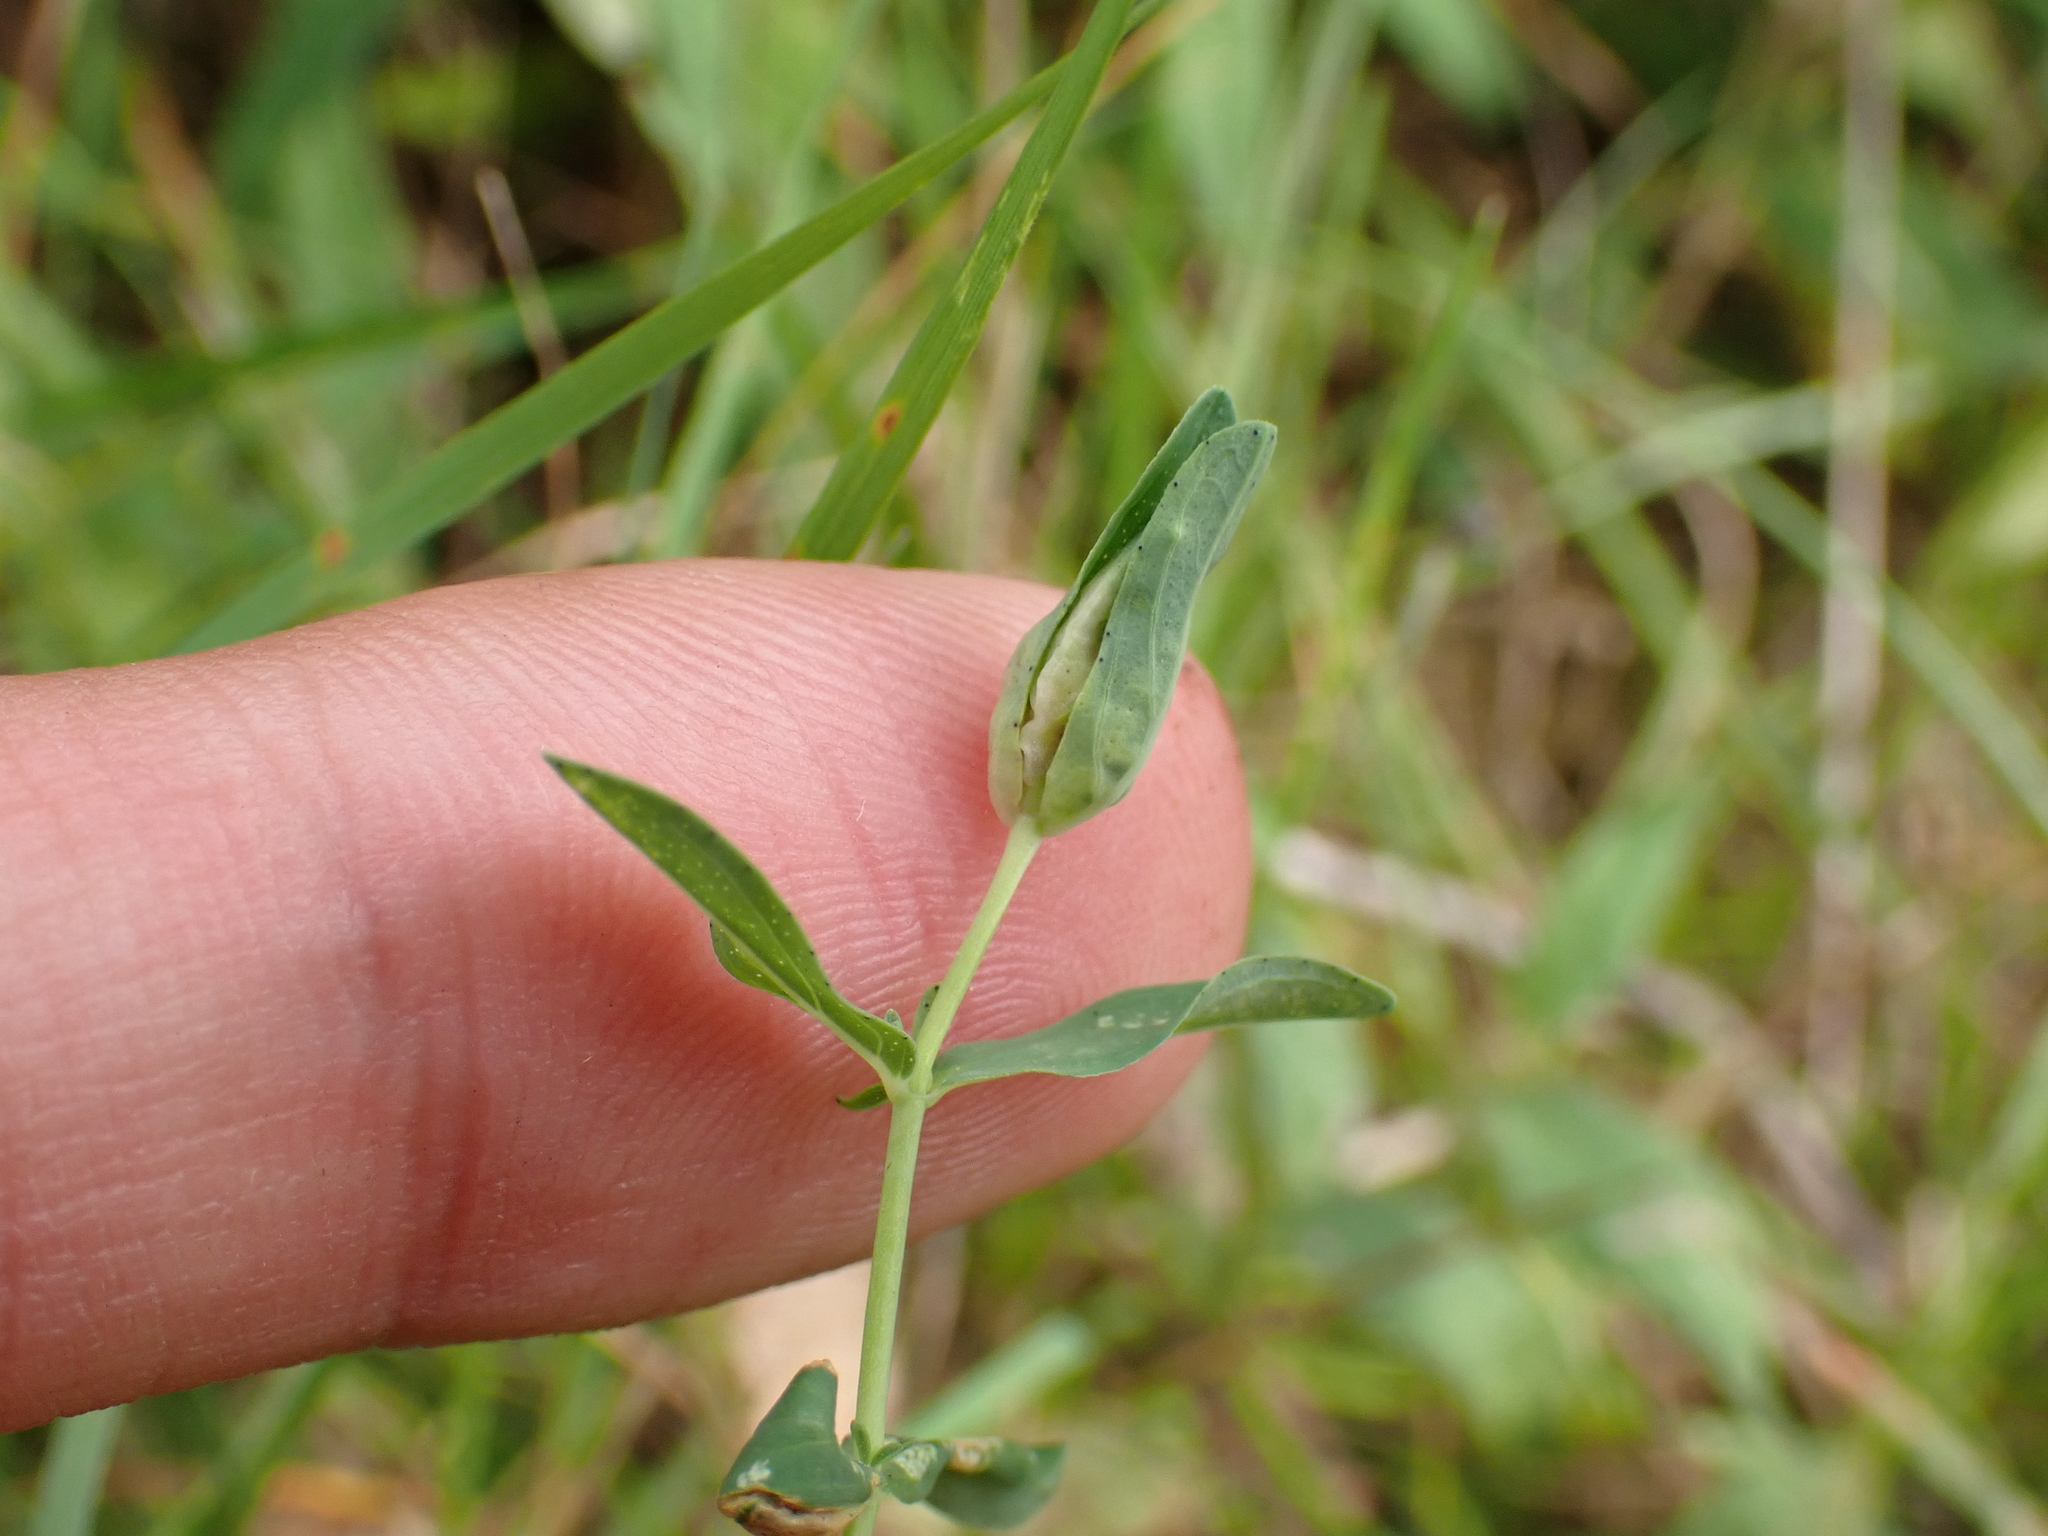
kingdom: Animalia
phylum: Arthropoda
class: Insecta
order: Diptera
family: Cecidomyiidae
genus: Dasineura
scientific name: Dasineura hyperici
